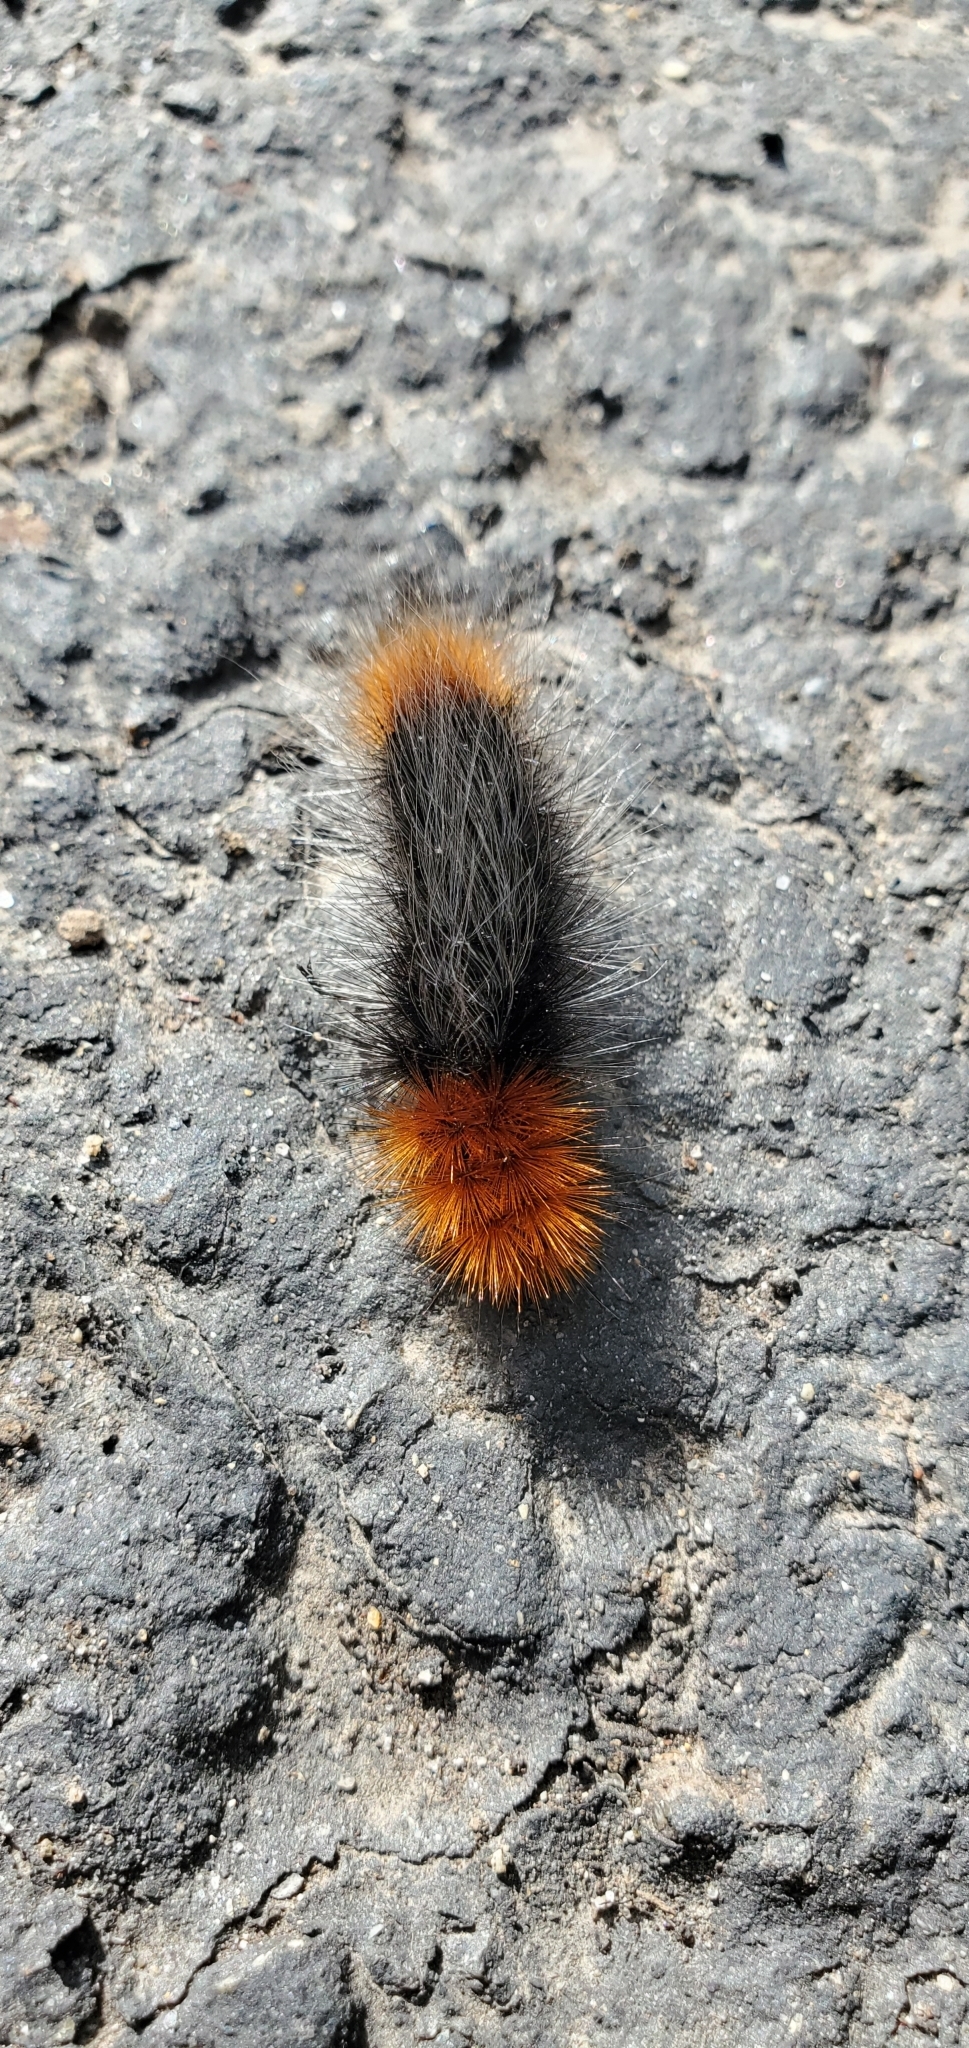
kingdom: Animalia
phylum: Arthropoda
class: Insecta
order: Lepidoptera
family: Erebidae
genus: Arctia
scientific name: Arctia tigrina
